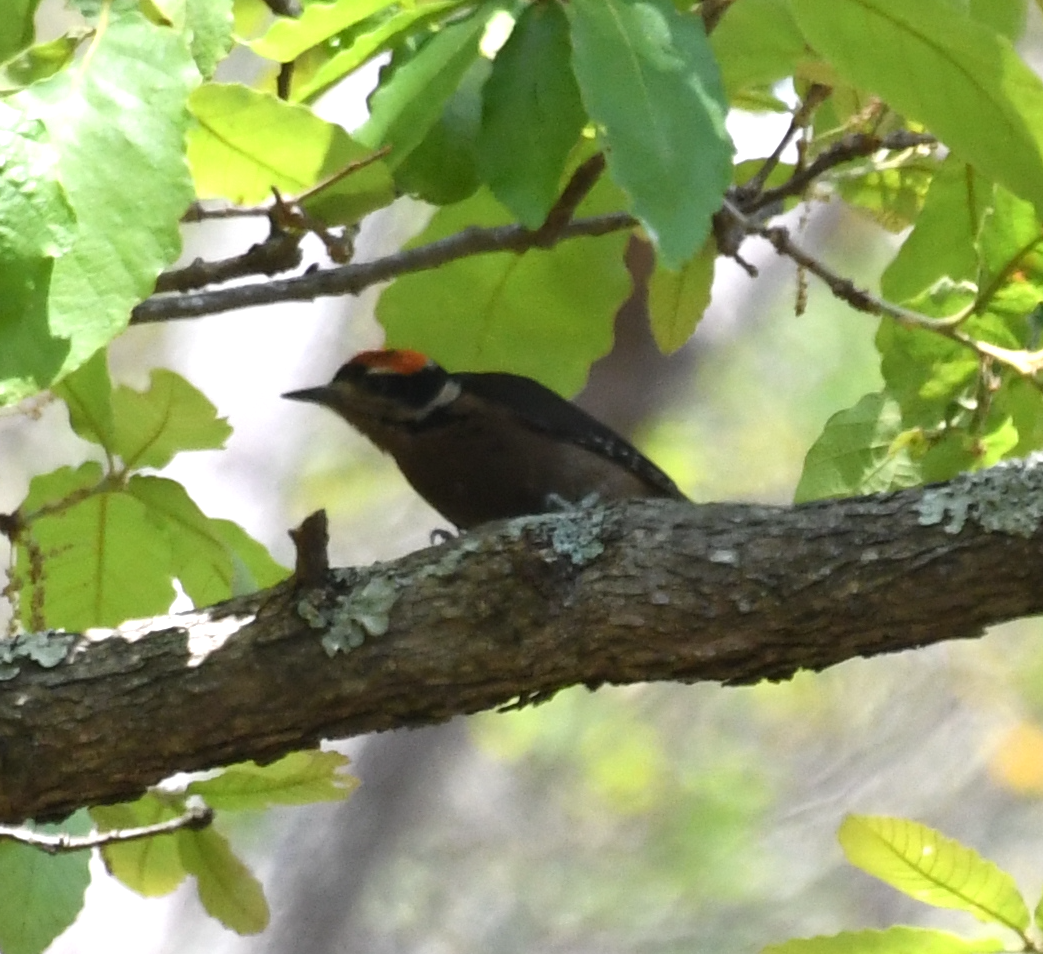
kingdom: Animalia
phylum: Chordata
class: Aves
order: Piciformes
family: Picidae
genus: Leuconotopicus
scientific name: Leuconotopicus villosus
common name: Hairy woodpecker
